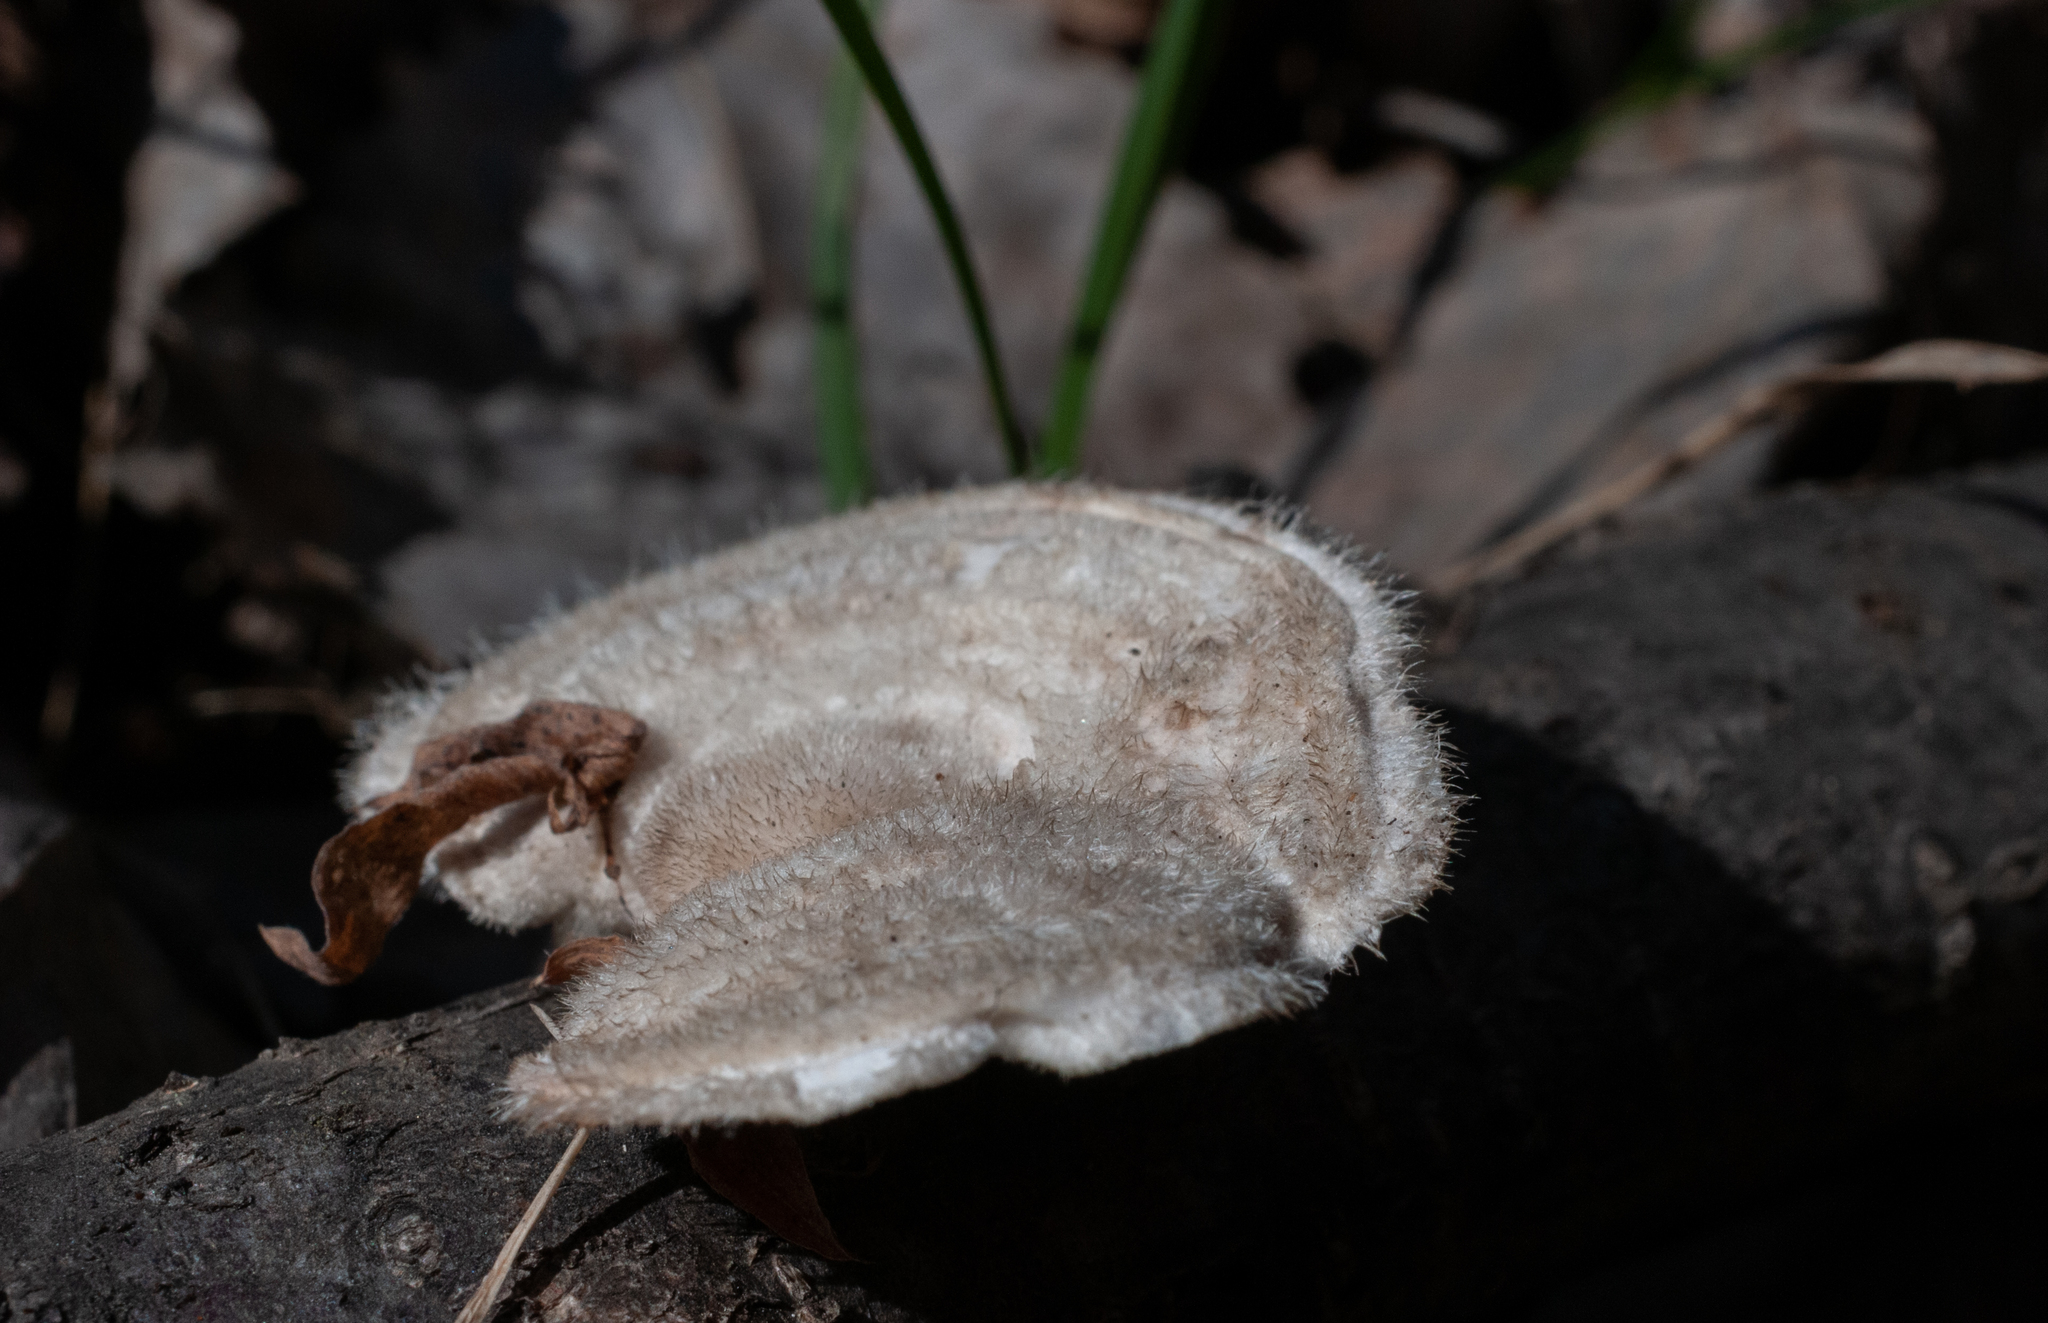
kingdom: Fungi
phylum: Basidiomycota
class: Agaricomycetes
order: Polyporales
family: Polyporaceae
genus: Trametes
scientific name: Trametes hirsuta
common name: Hairy bracket
